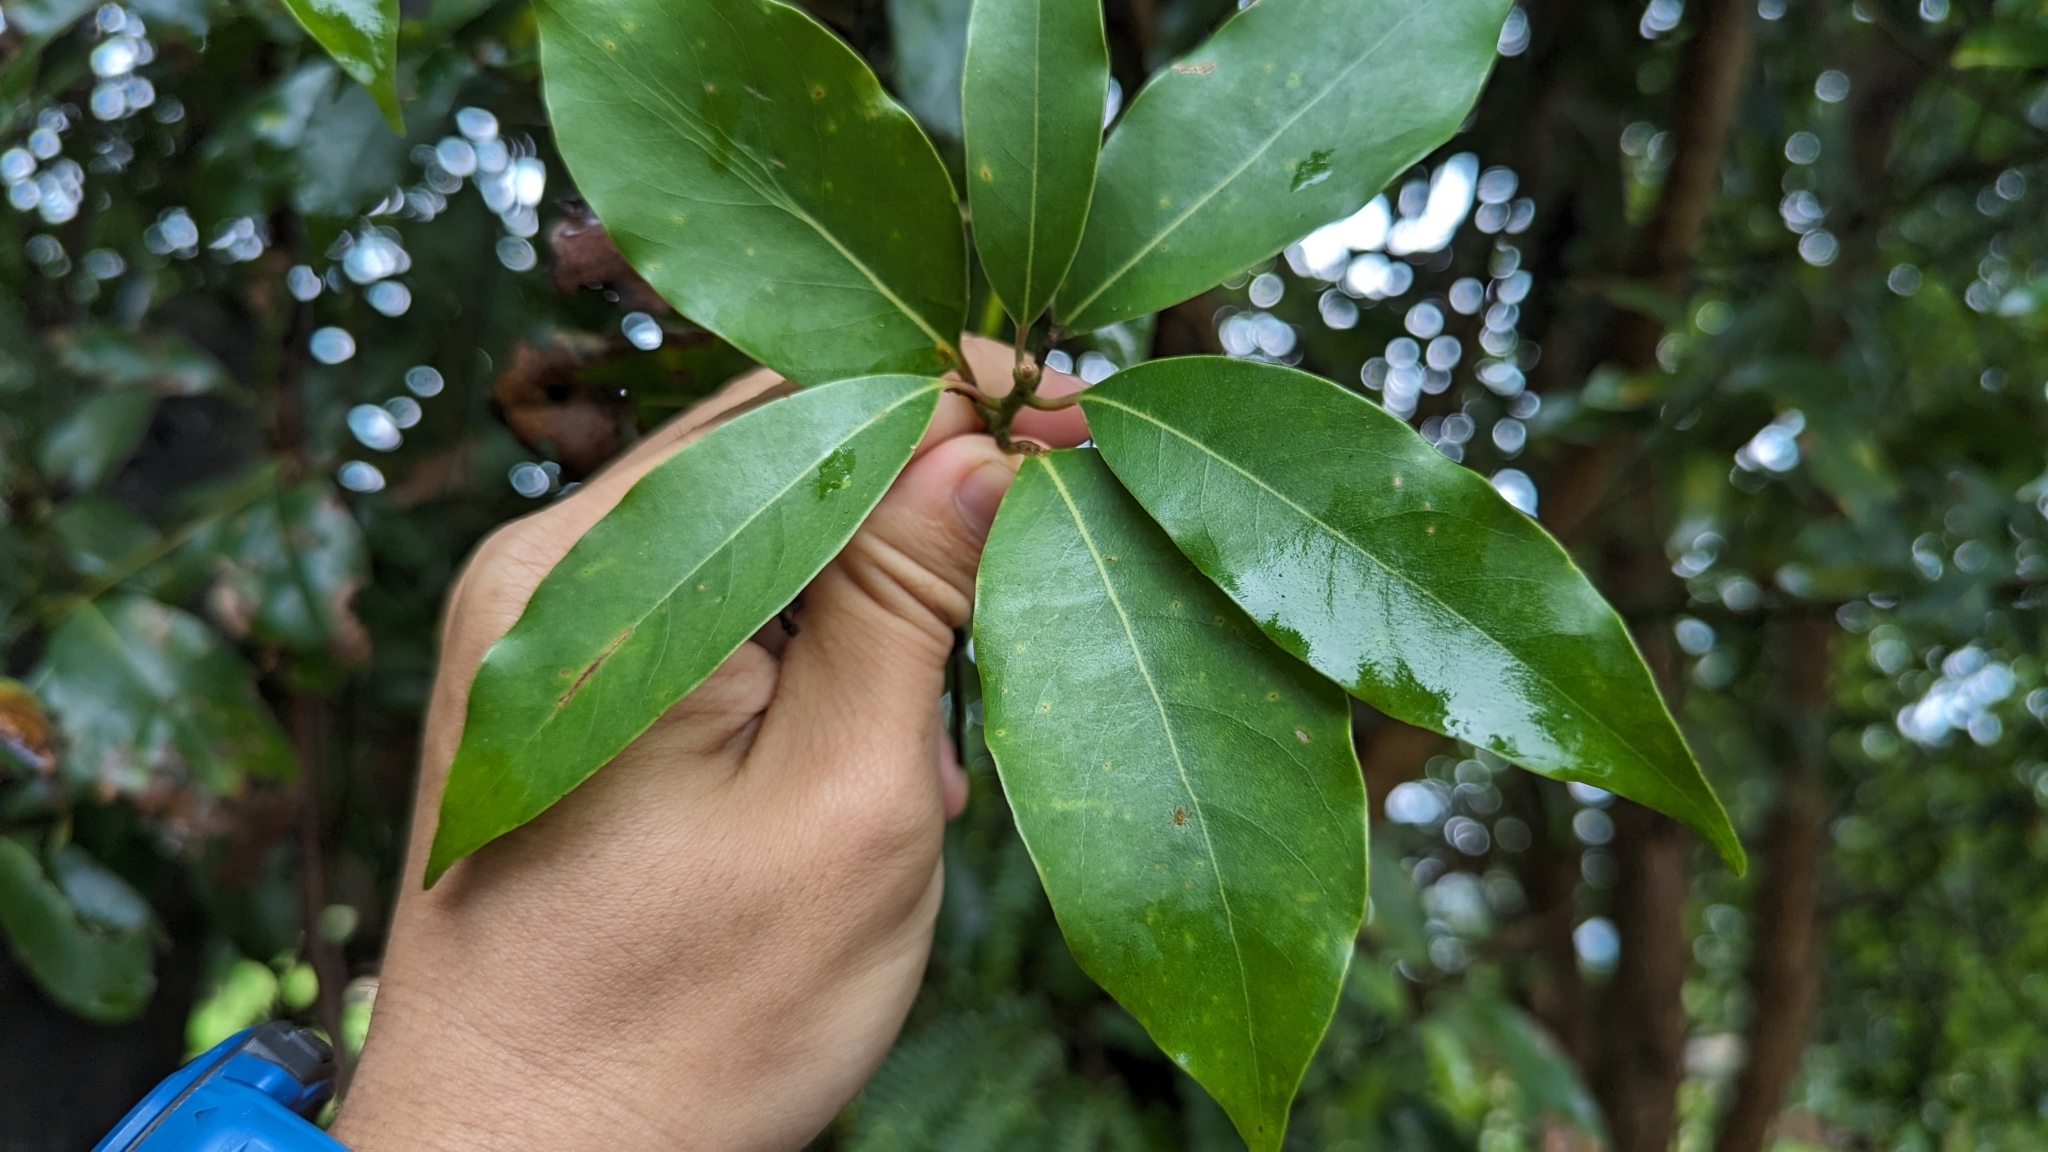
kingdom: Plantae
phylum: Tracheophyta
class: Magnoliopsida
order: Laurales
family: Lauraceae
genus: Machilus
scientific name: Machilus thunbergii
